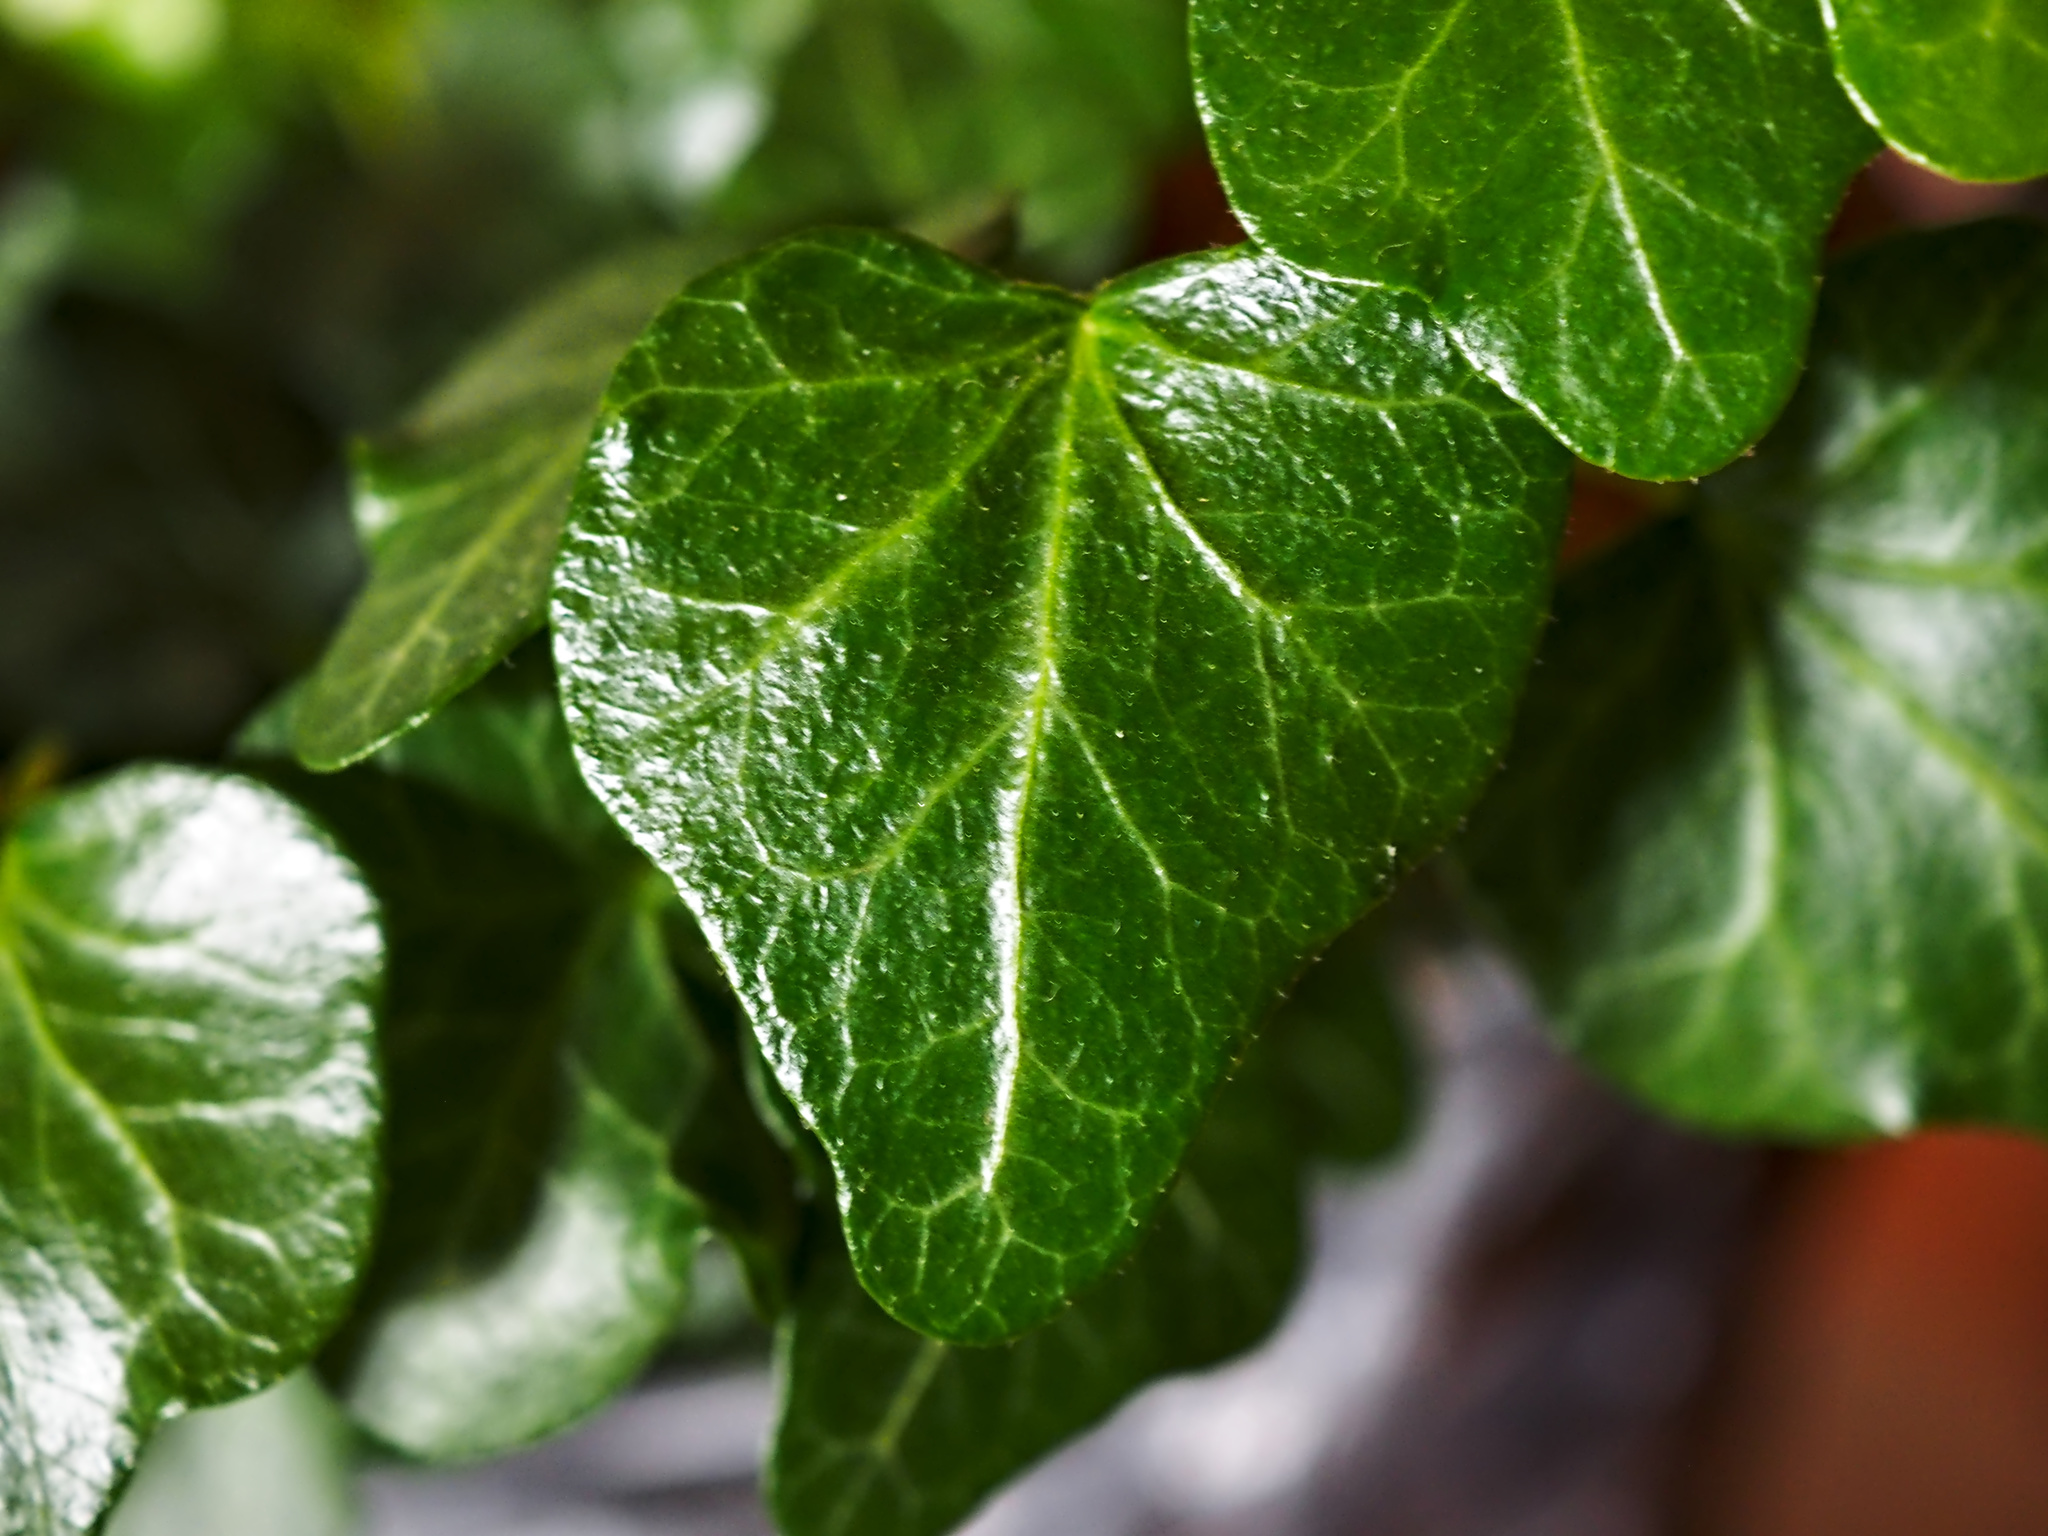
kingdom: Plantae
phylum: Tracheophyta
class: Magnoliopsida
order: Apiales
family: Araliaceae
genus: Hedera
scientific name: Hedera helix
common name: Ivy
